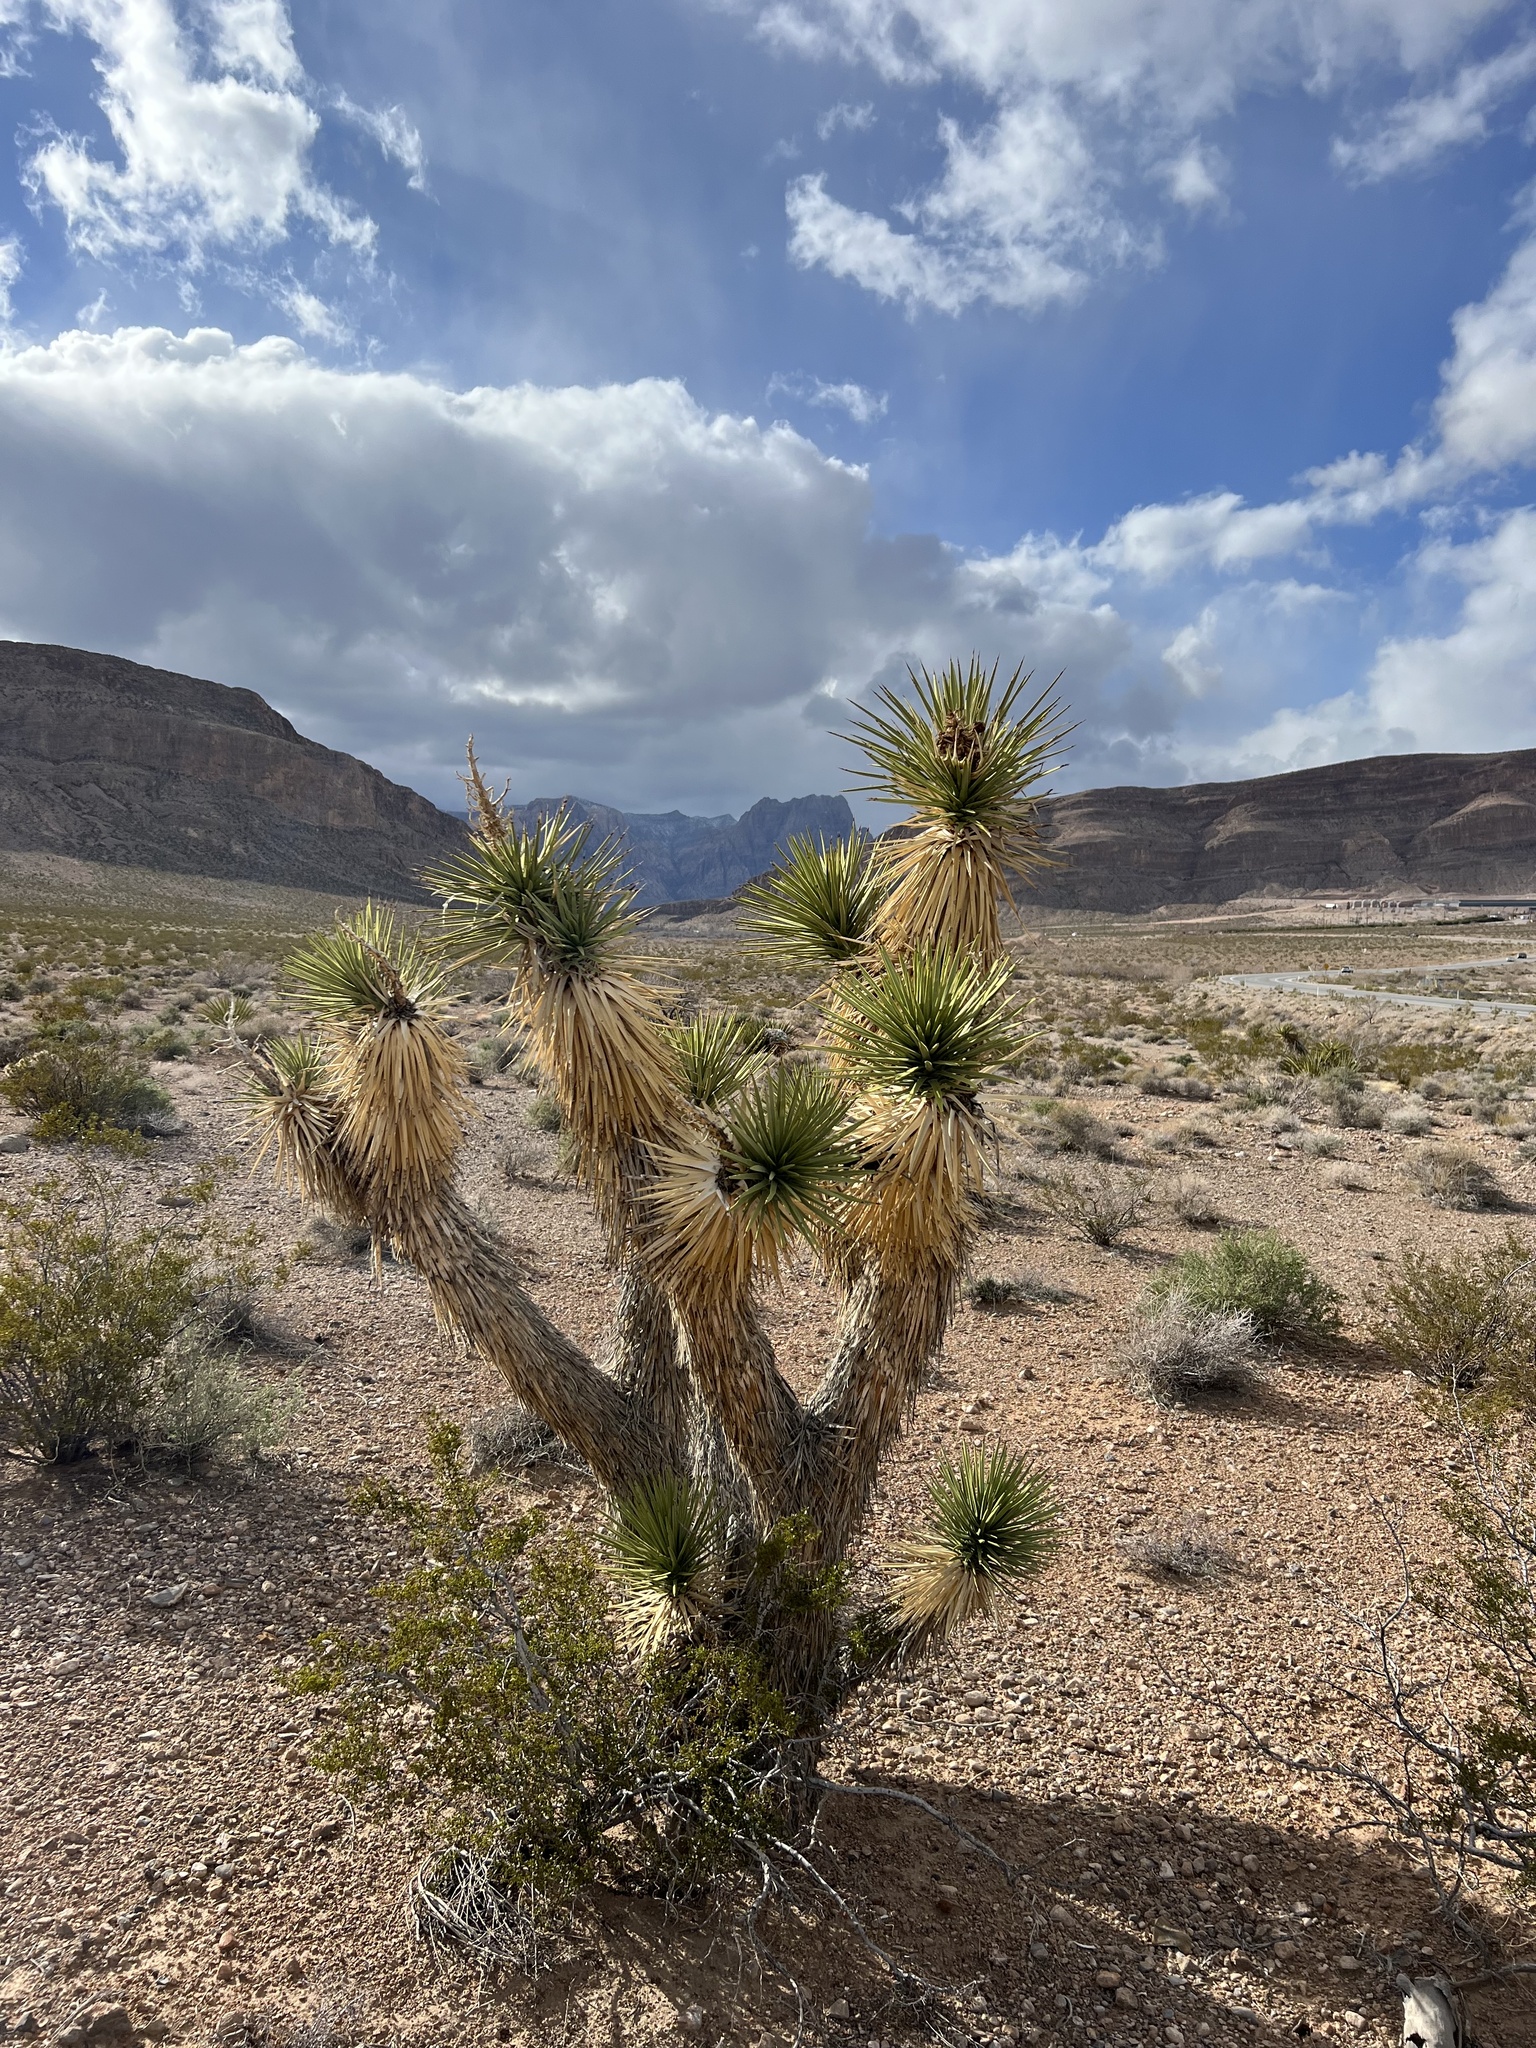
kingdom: Plantae
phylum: Tracheophyta
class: Liliopsida
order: Asparagales
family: Asparagaceae
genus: Yucca
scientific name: Yucca brevifolia
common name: Joshua tree
